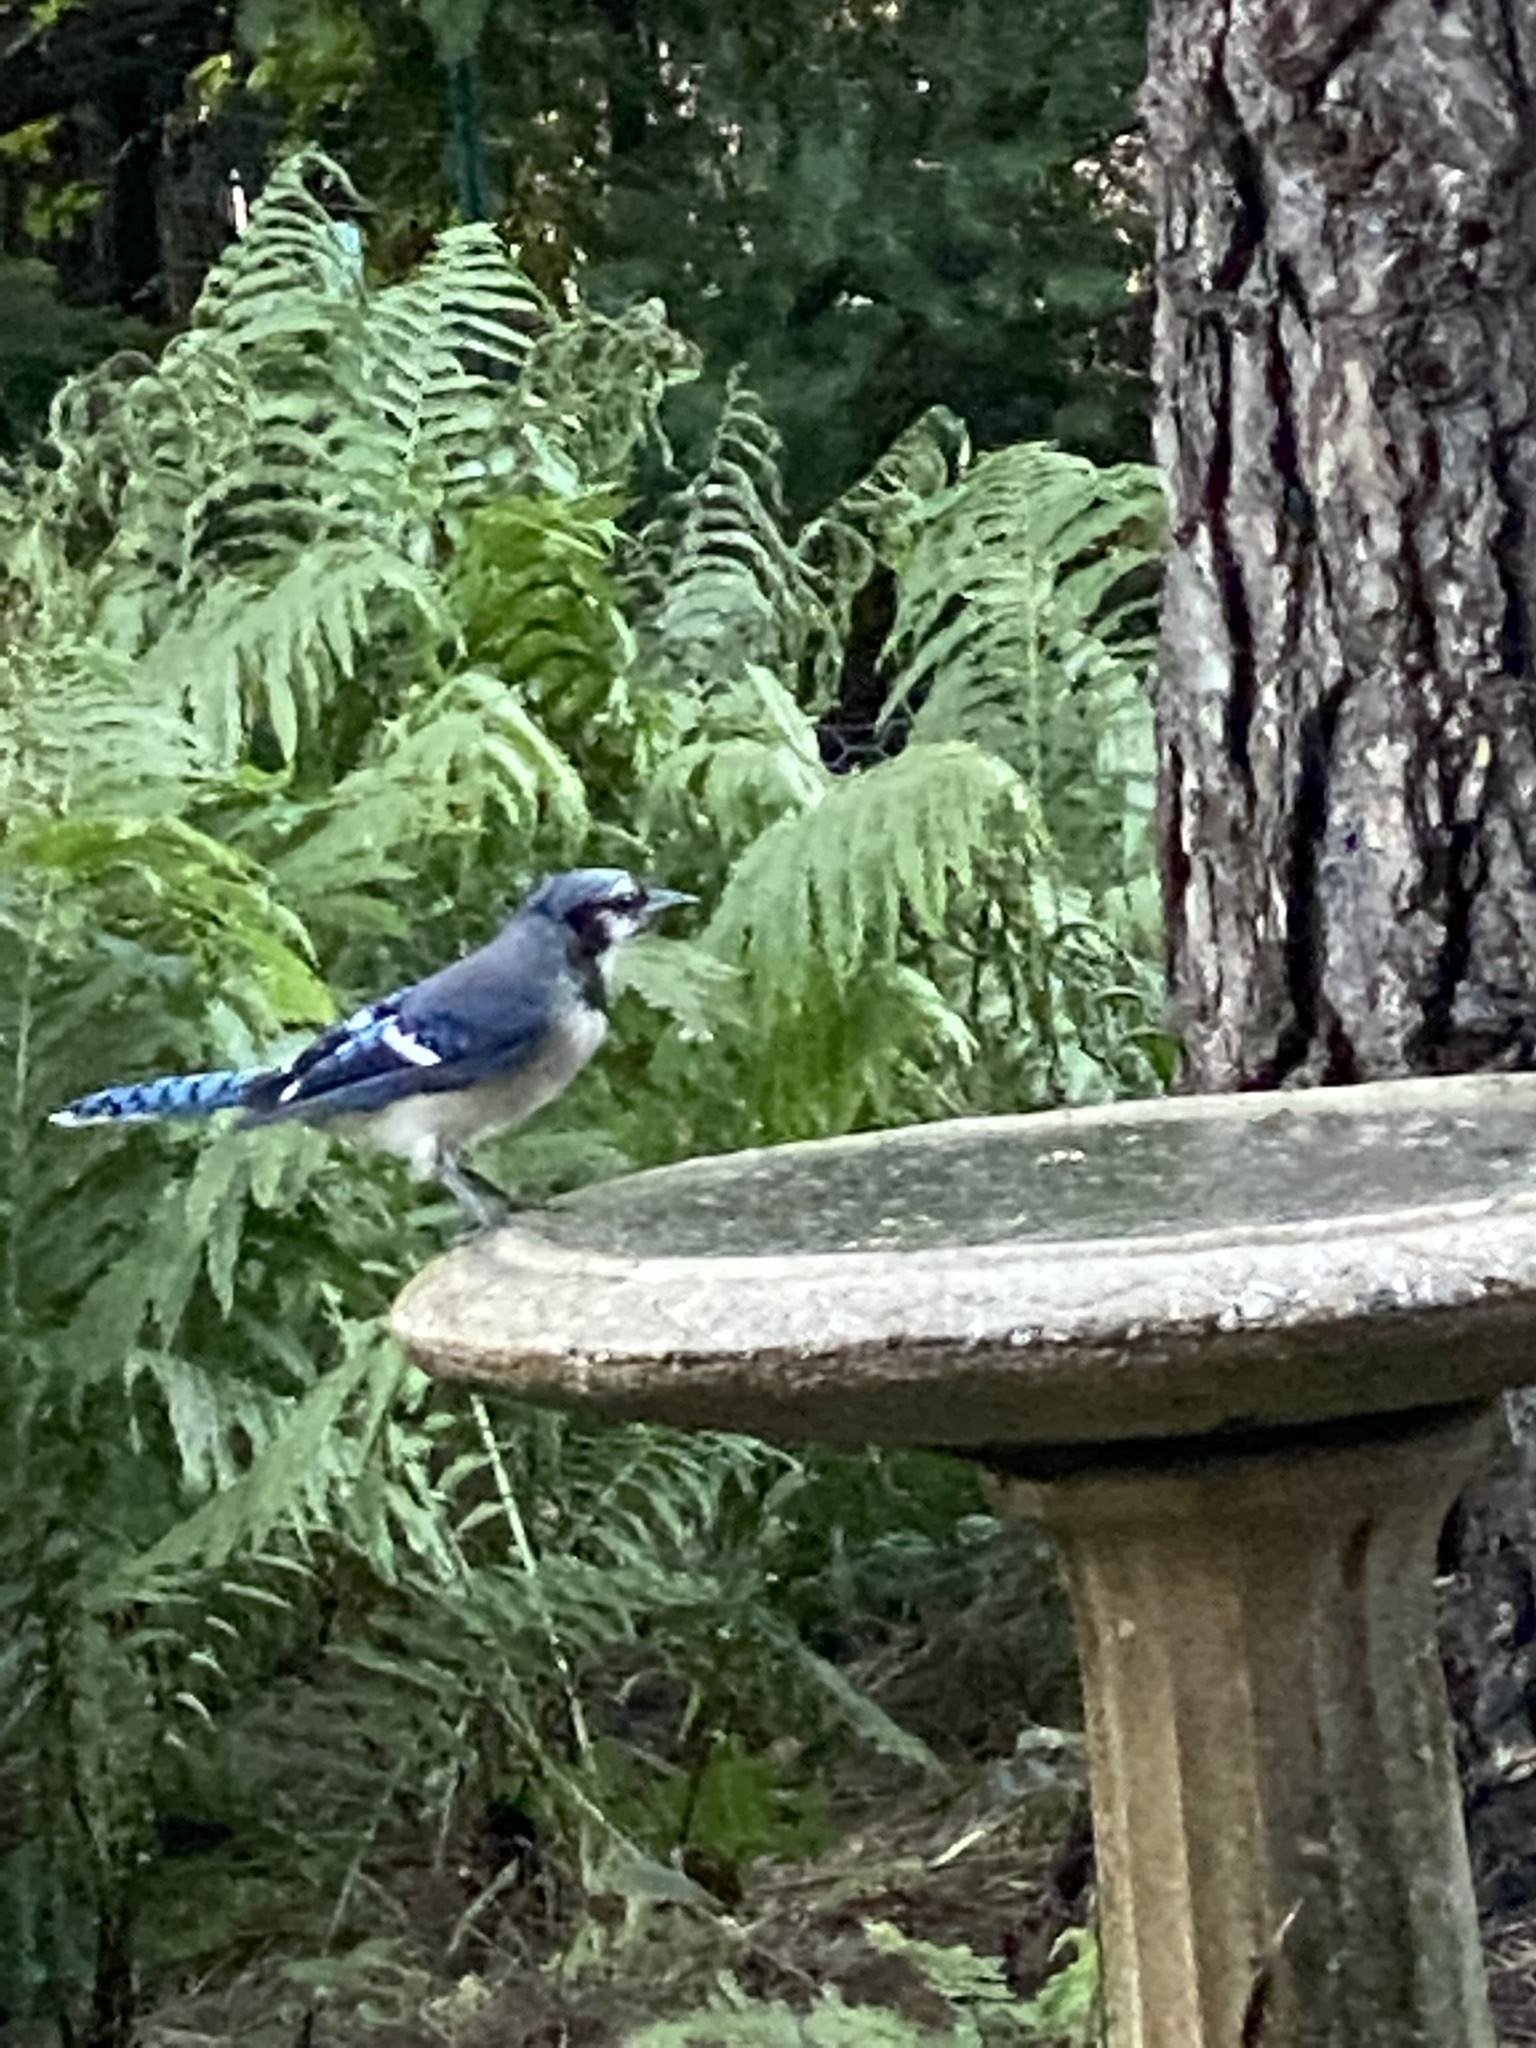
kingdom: Animalia
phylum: Chordata
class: Aves
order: Passeriformes
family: Corvidae
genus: Cyanocitta
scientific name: Cyanocitta cristata
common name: Blue jay
